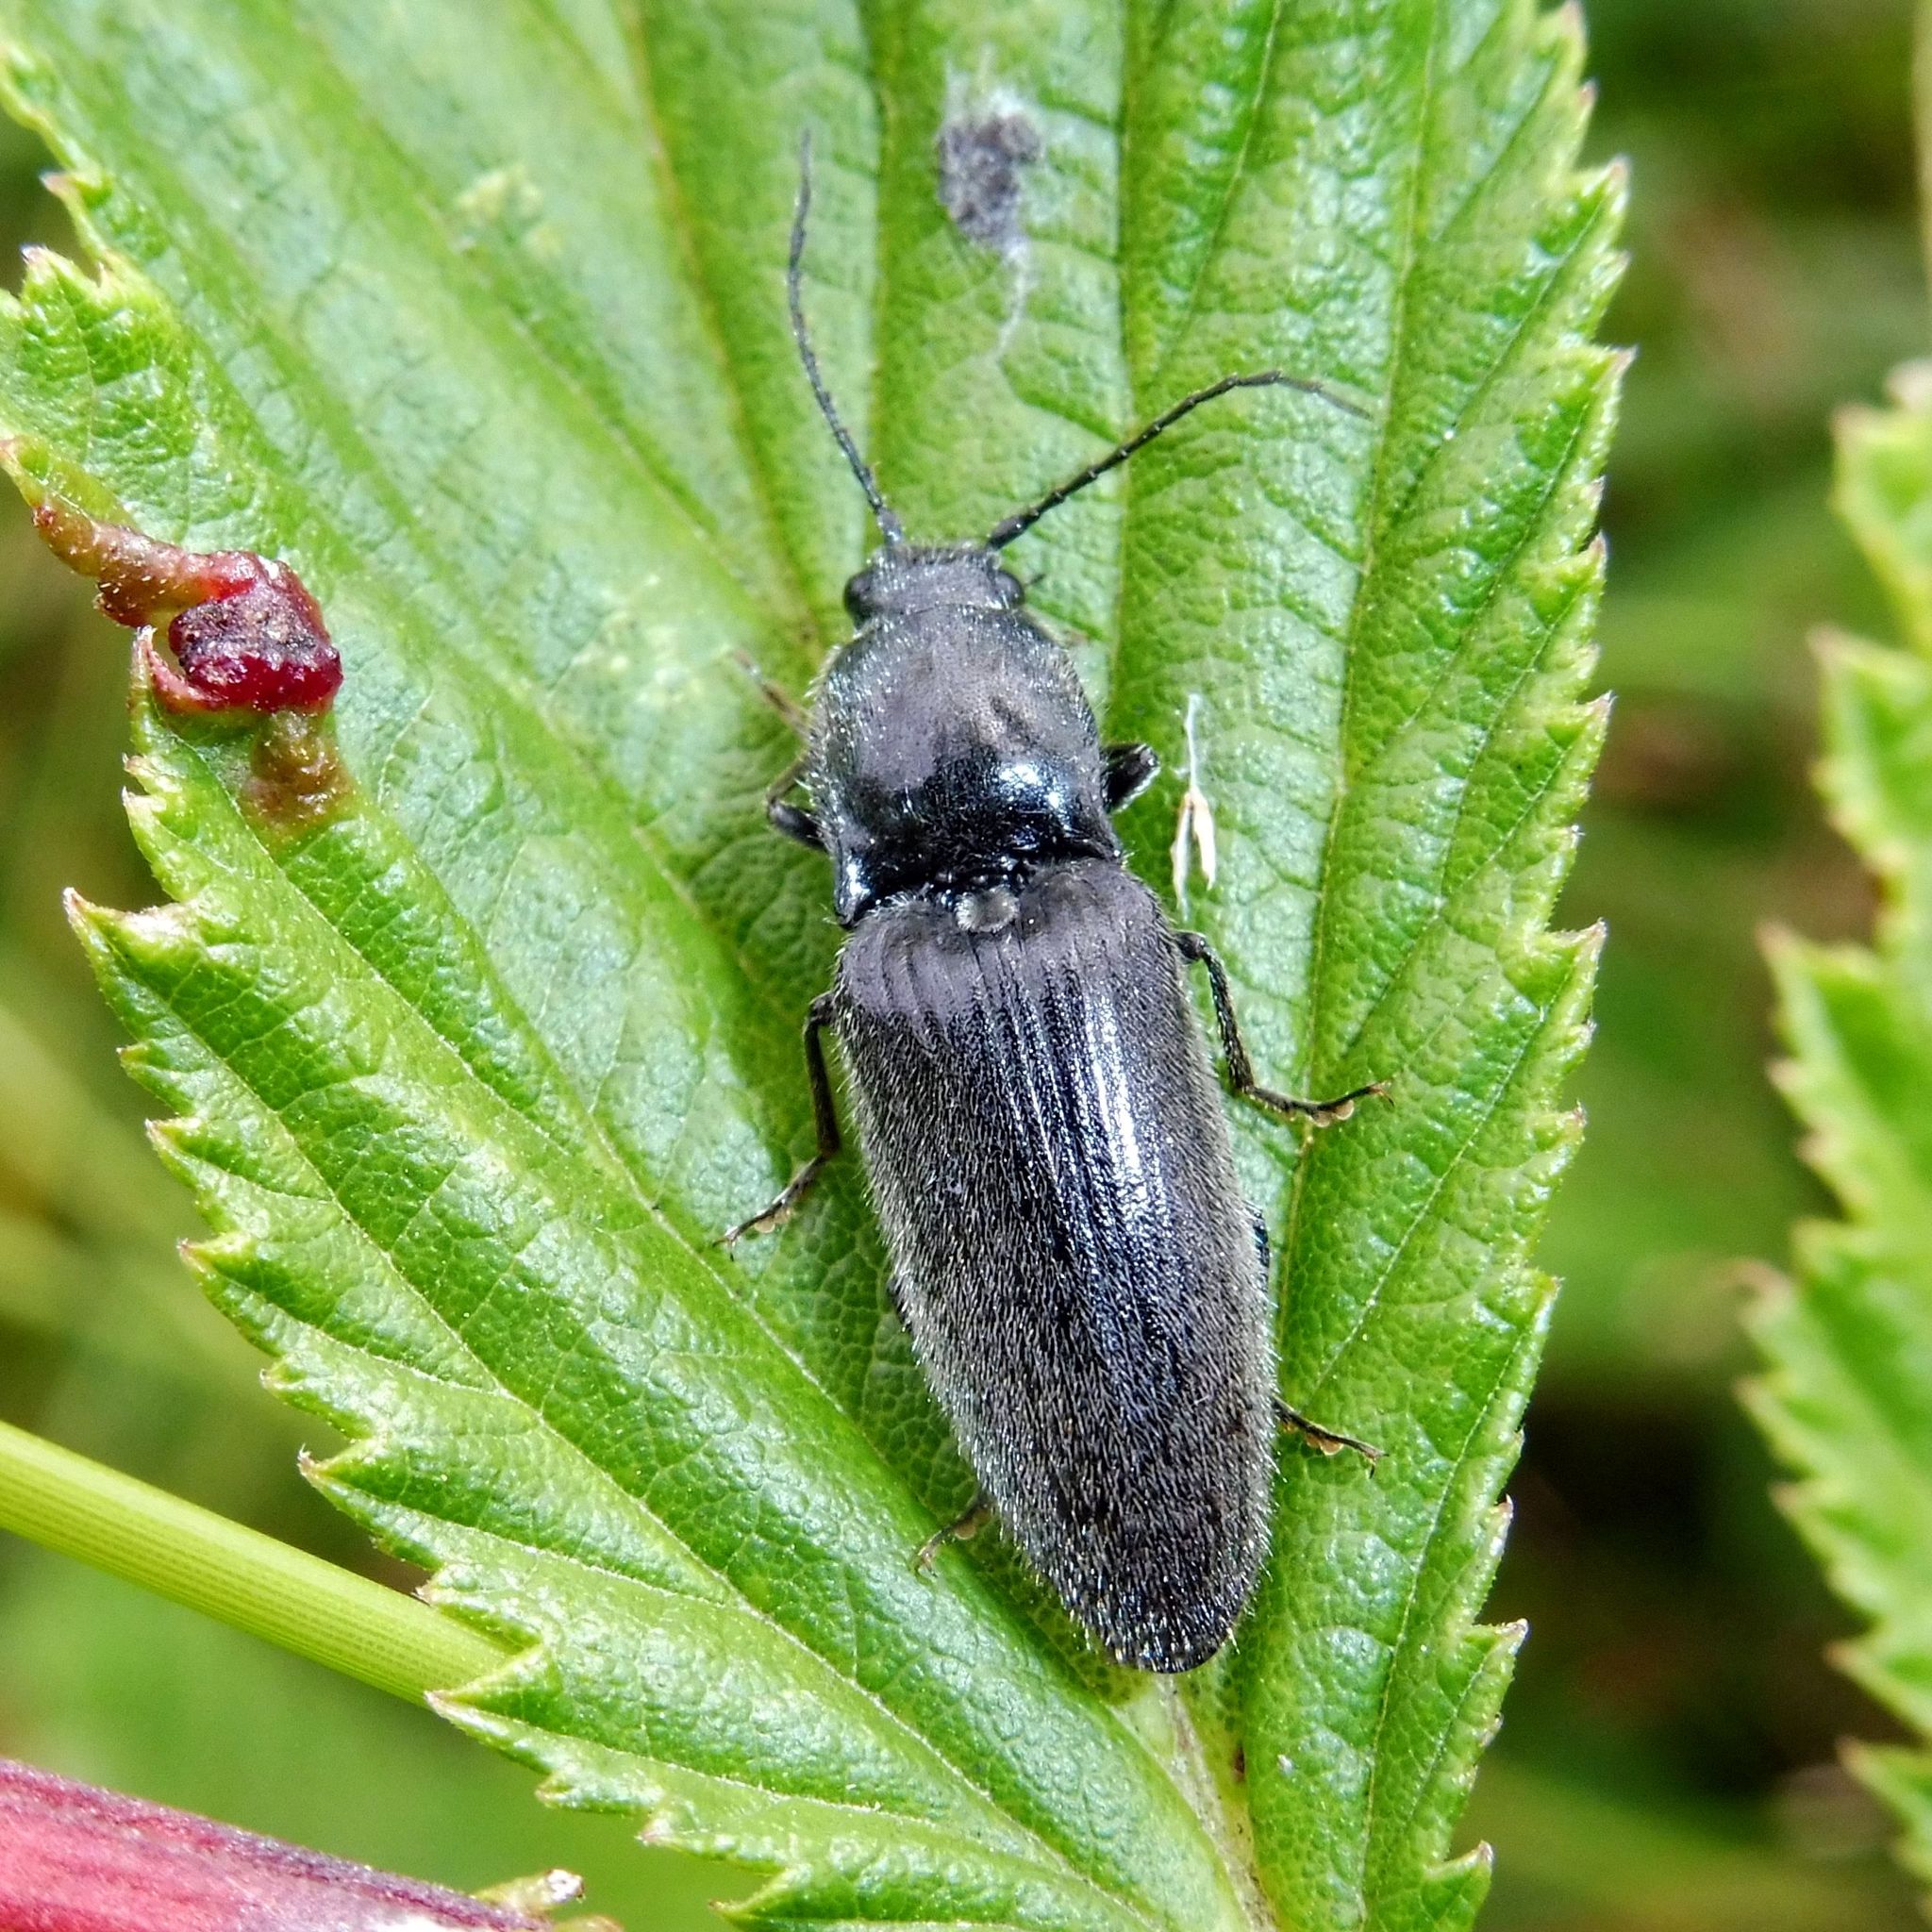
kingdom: Animalia
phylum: Arthropoda
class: Insecta
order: Coleoptera
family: Elateridae
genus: Hemicrepidius
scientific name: Hemicrepidius hirtus
